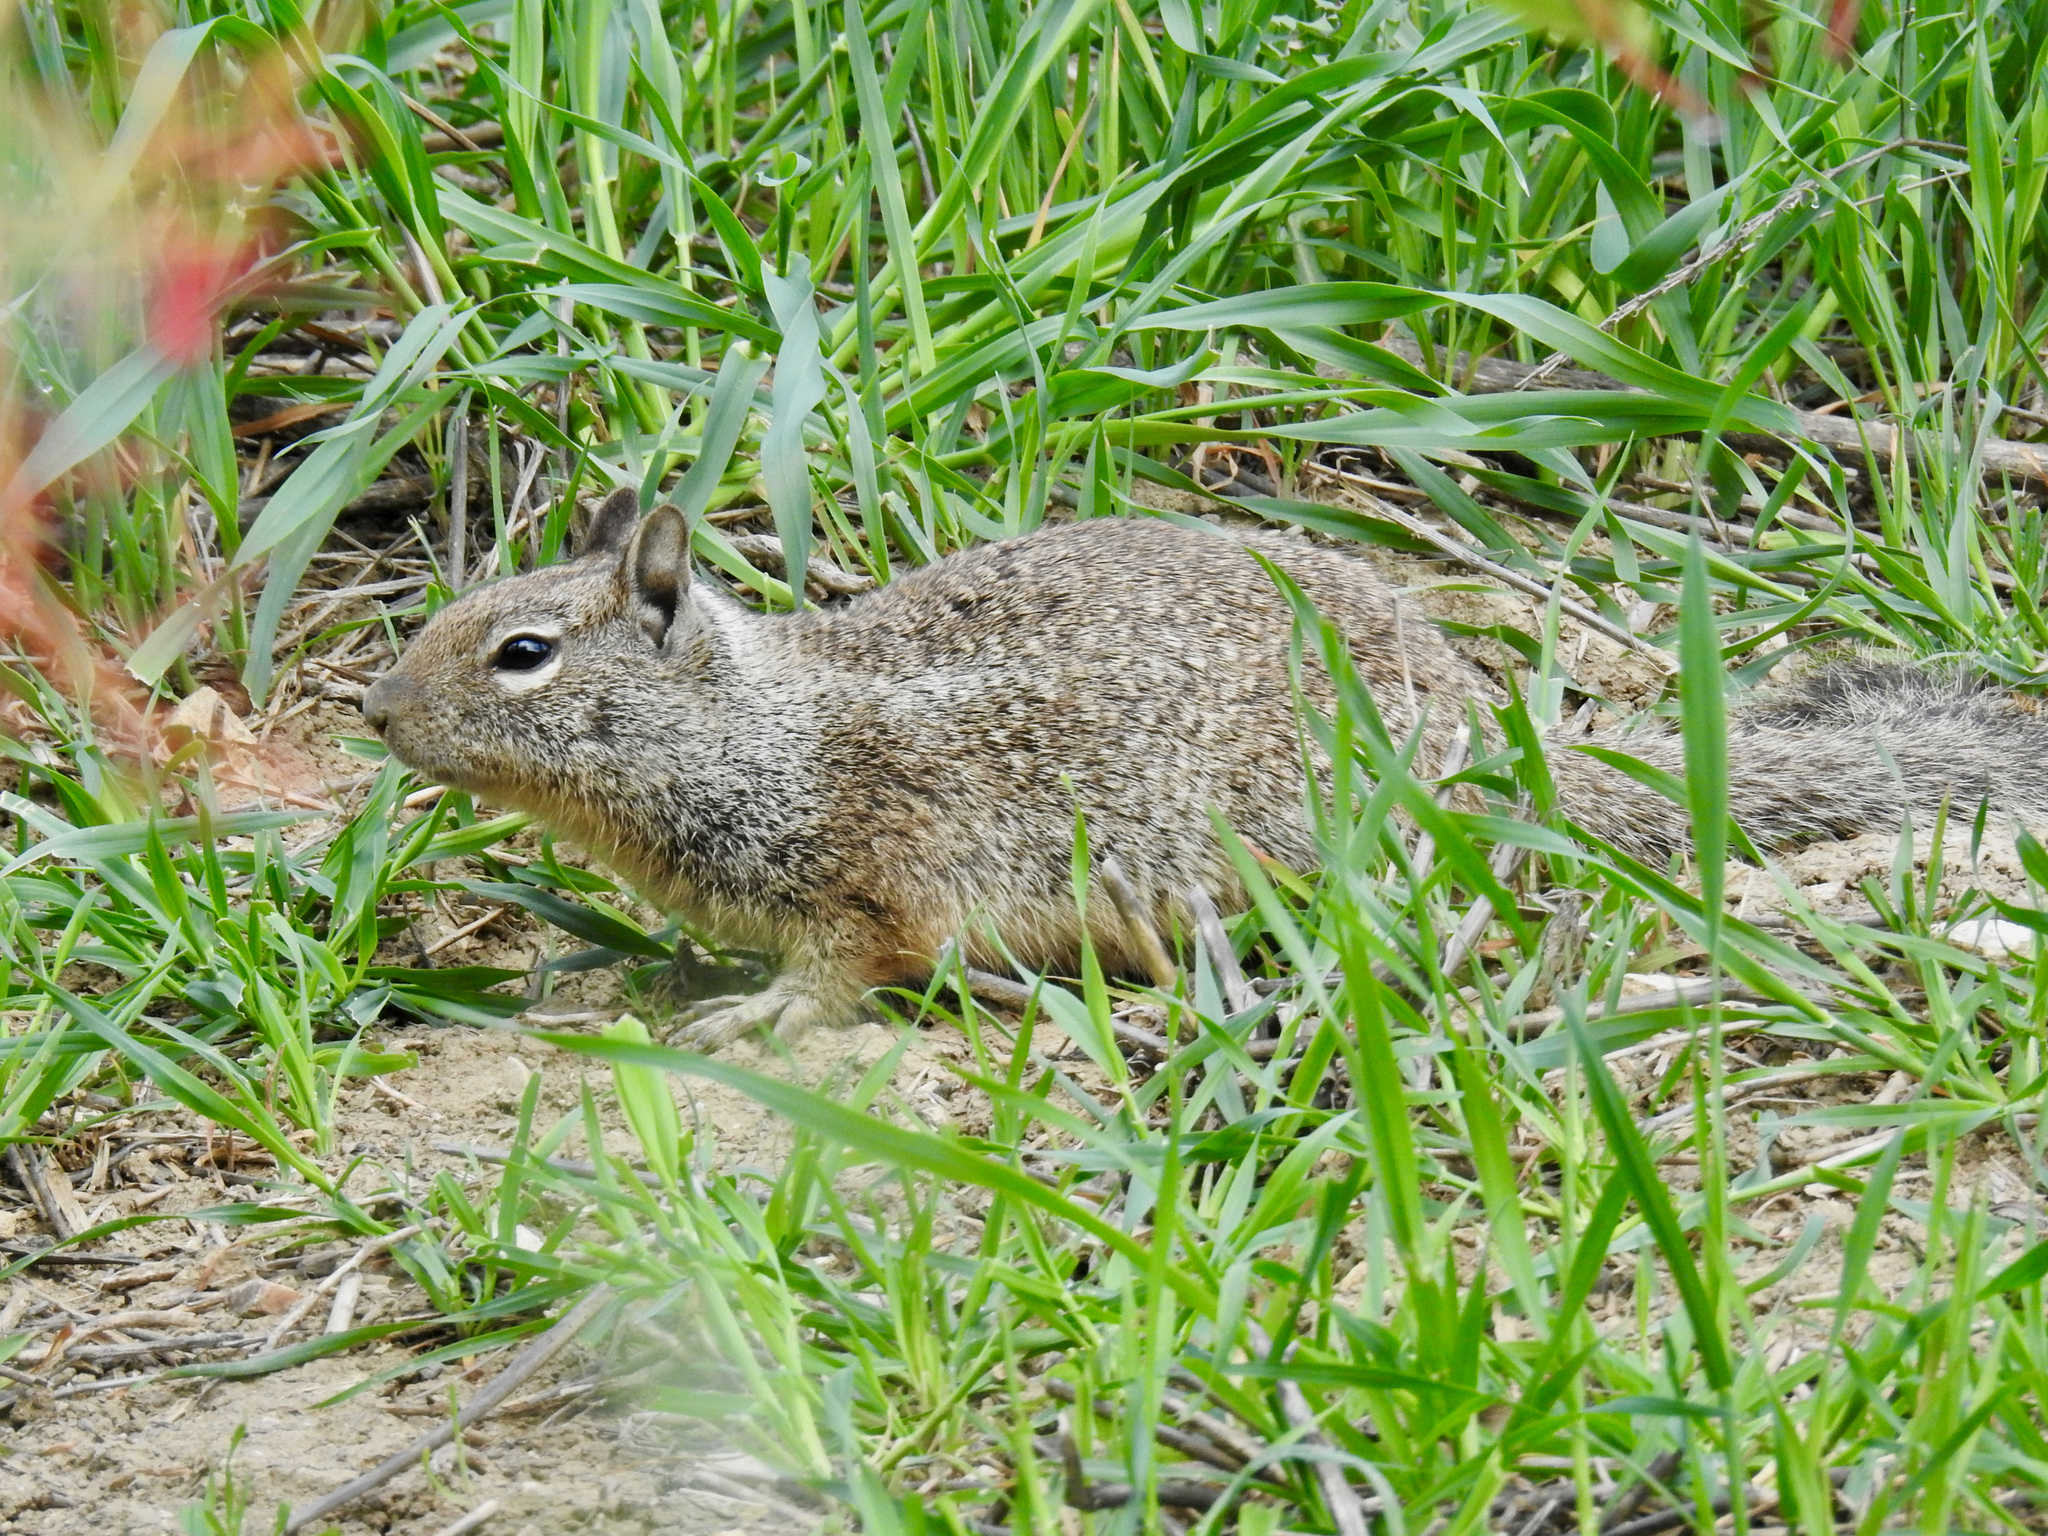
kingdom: Animalia
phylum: Chordata
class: Mammalia
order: Rodentia
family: Sciuridae
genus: Otospermophilus
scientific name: Otospermophilus beecheyi
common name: California ground squirrel
